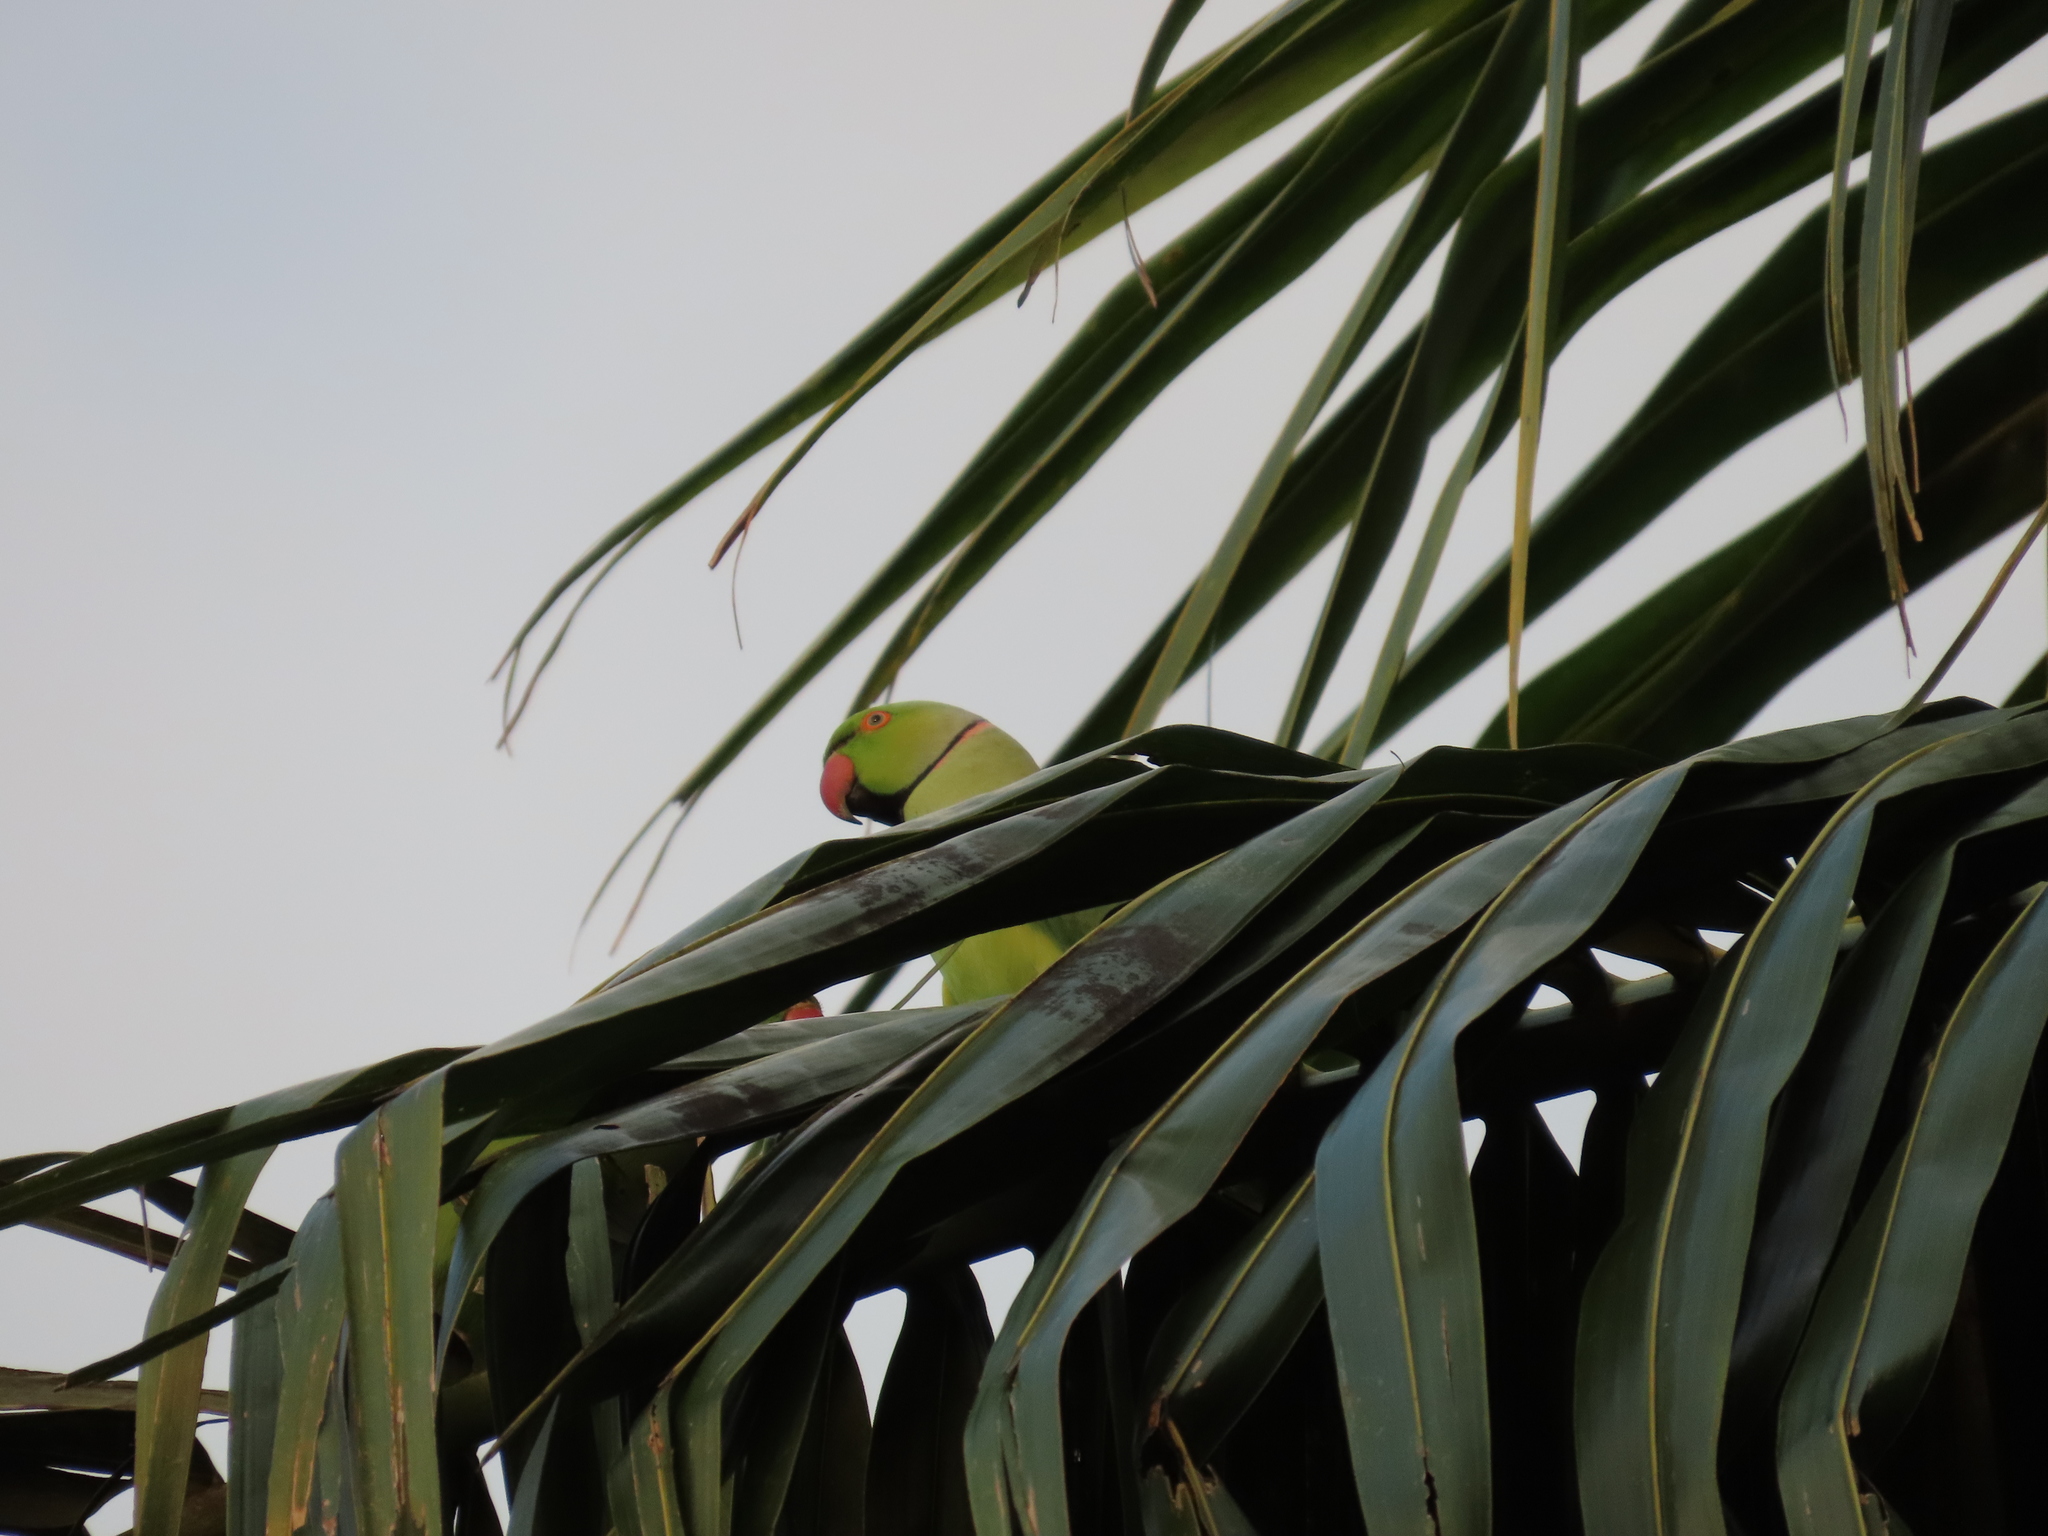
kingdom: Animalia
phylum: Chordata
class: Aves
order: Psittaciformes
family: Psittacidae
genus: Psittacula
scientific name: Psittacula krameri
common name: Rose-ringed parakeet
